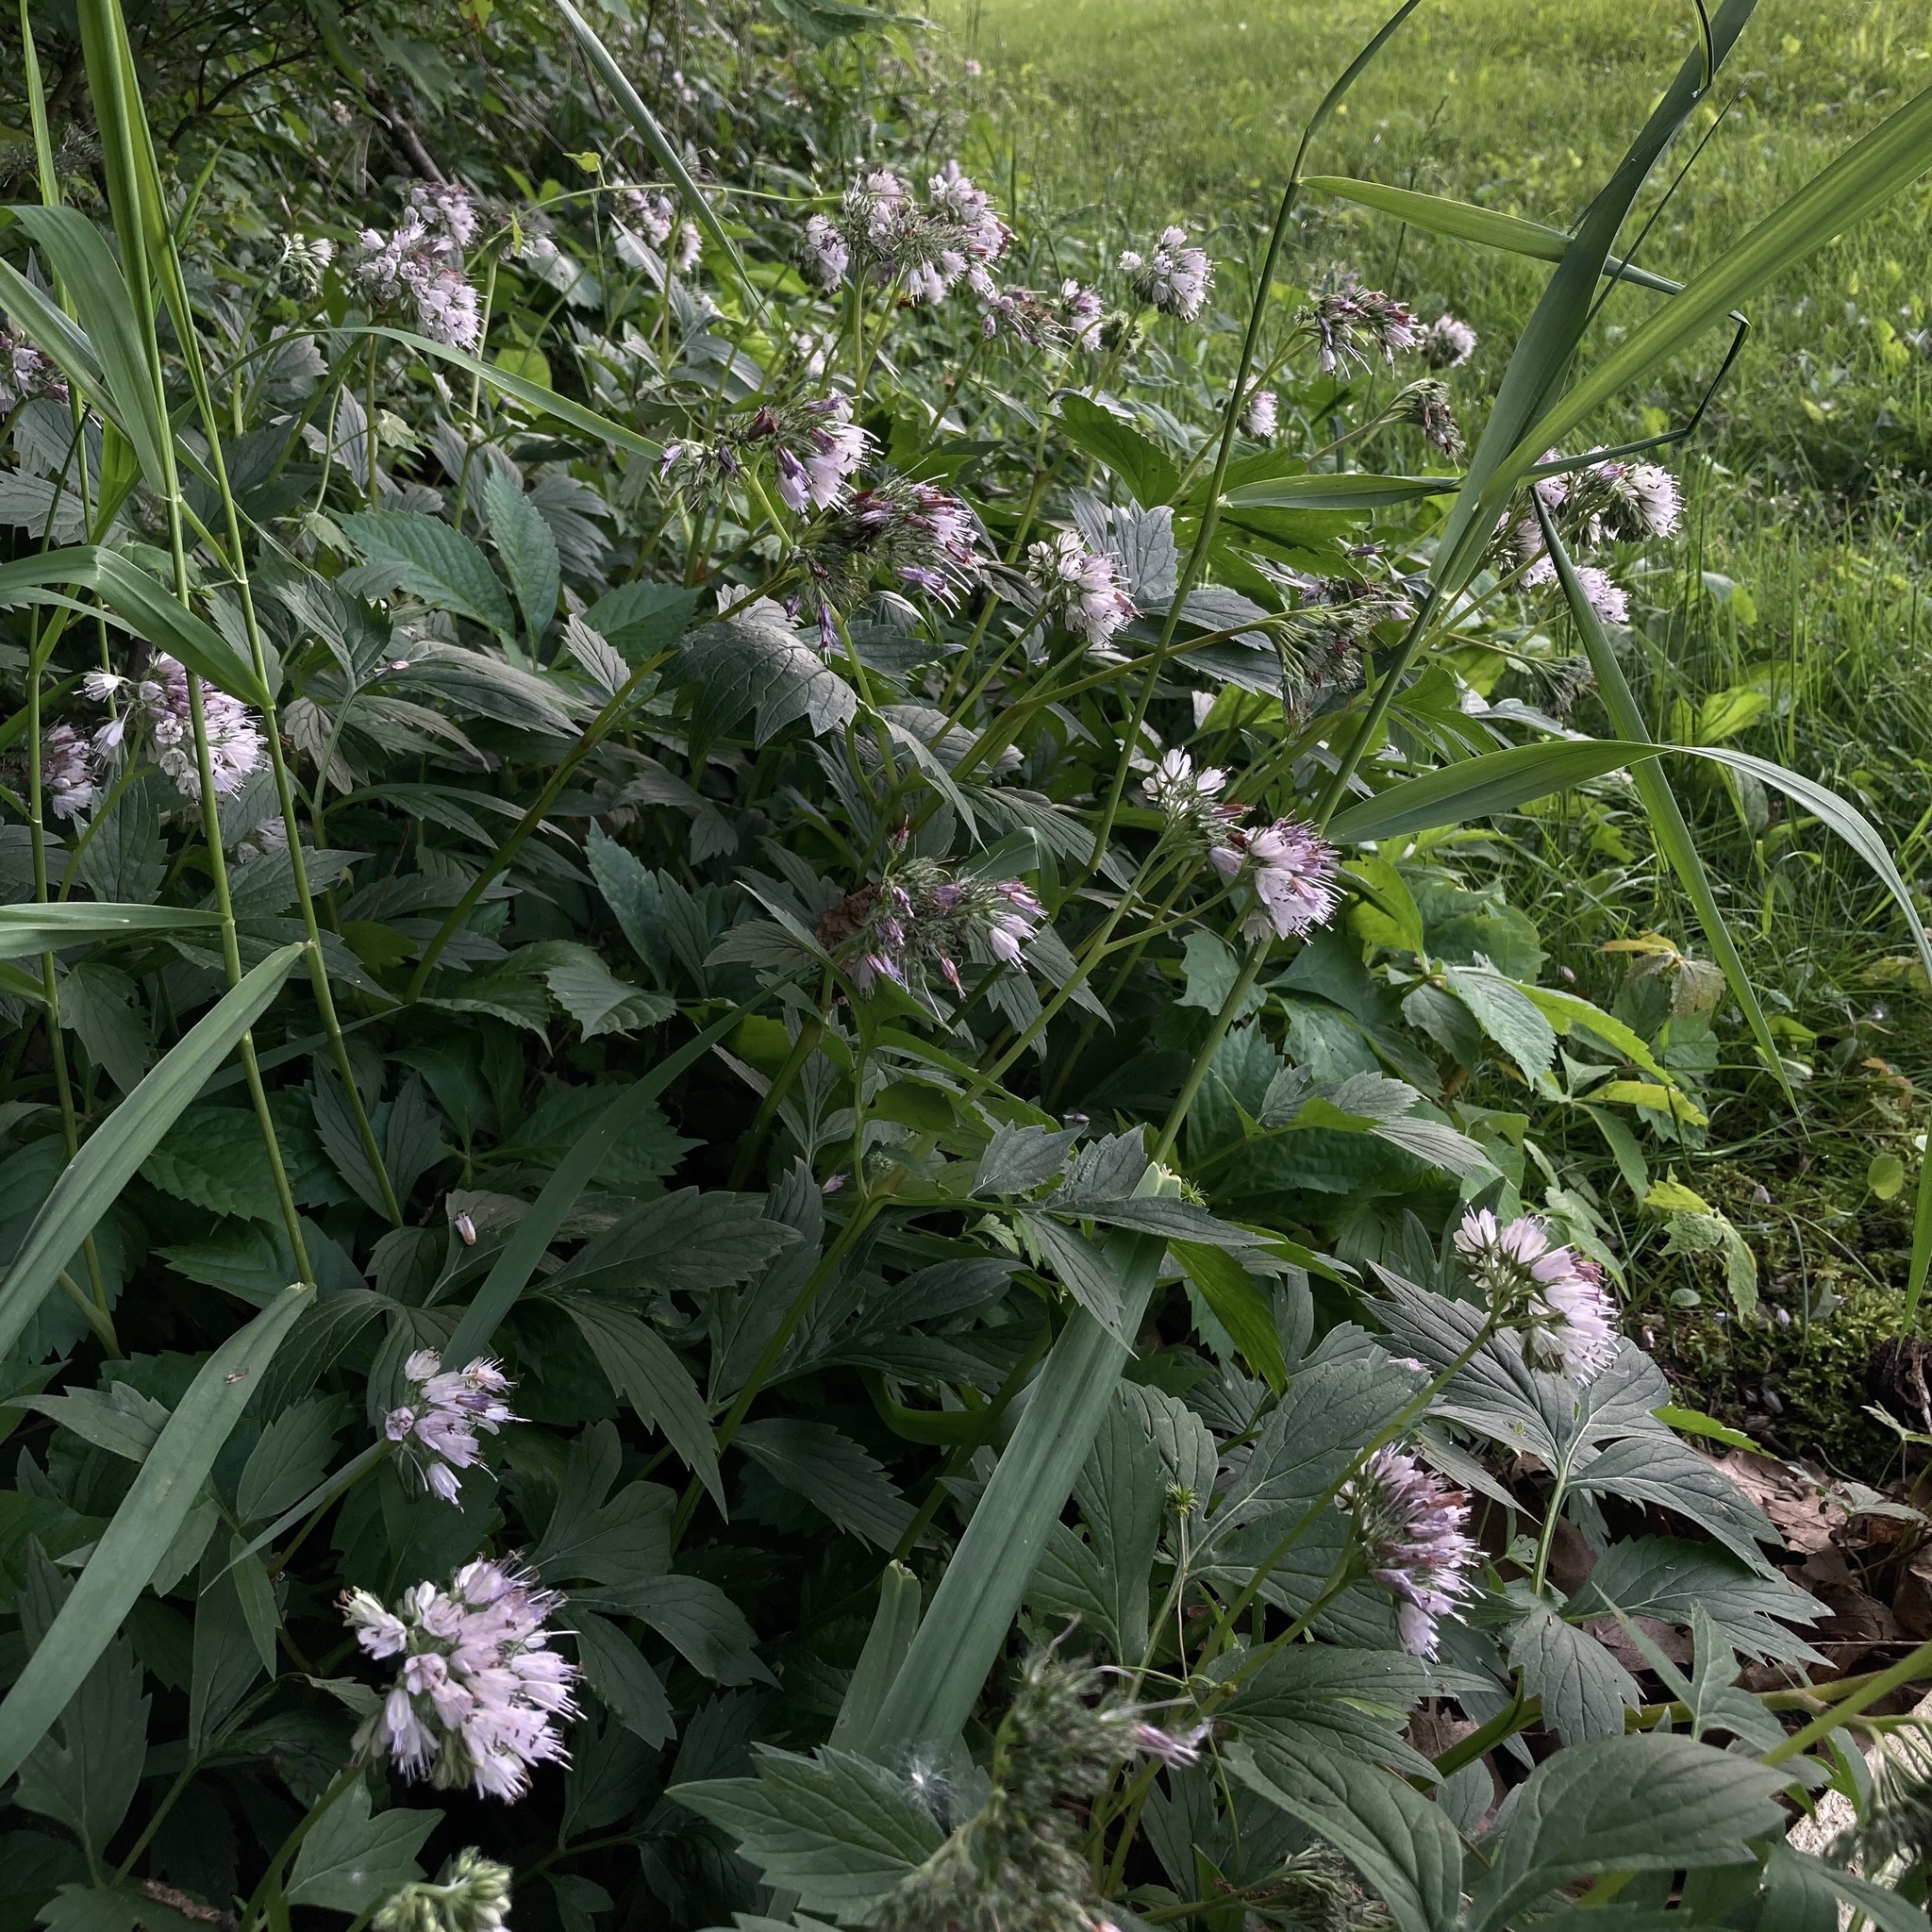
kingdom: Plantae
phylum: Tracheophyta
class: Magnoliopsida
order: Boraginales
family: Hydrophyllaceae
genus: Hydrophyllum
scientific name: Hydrophyllum virginianum
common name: Virginia waterleaf
